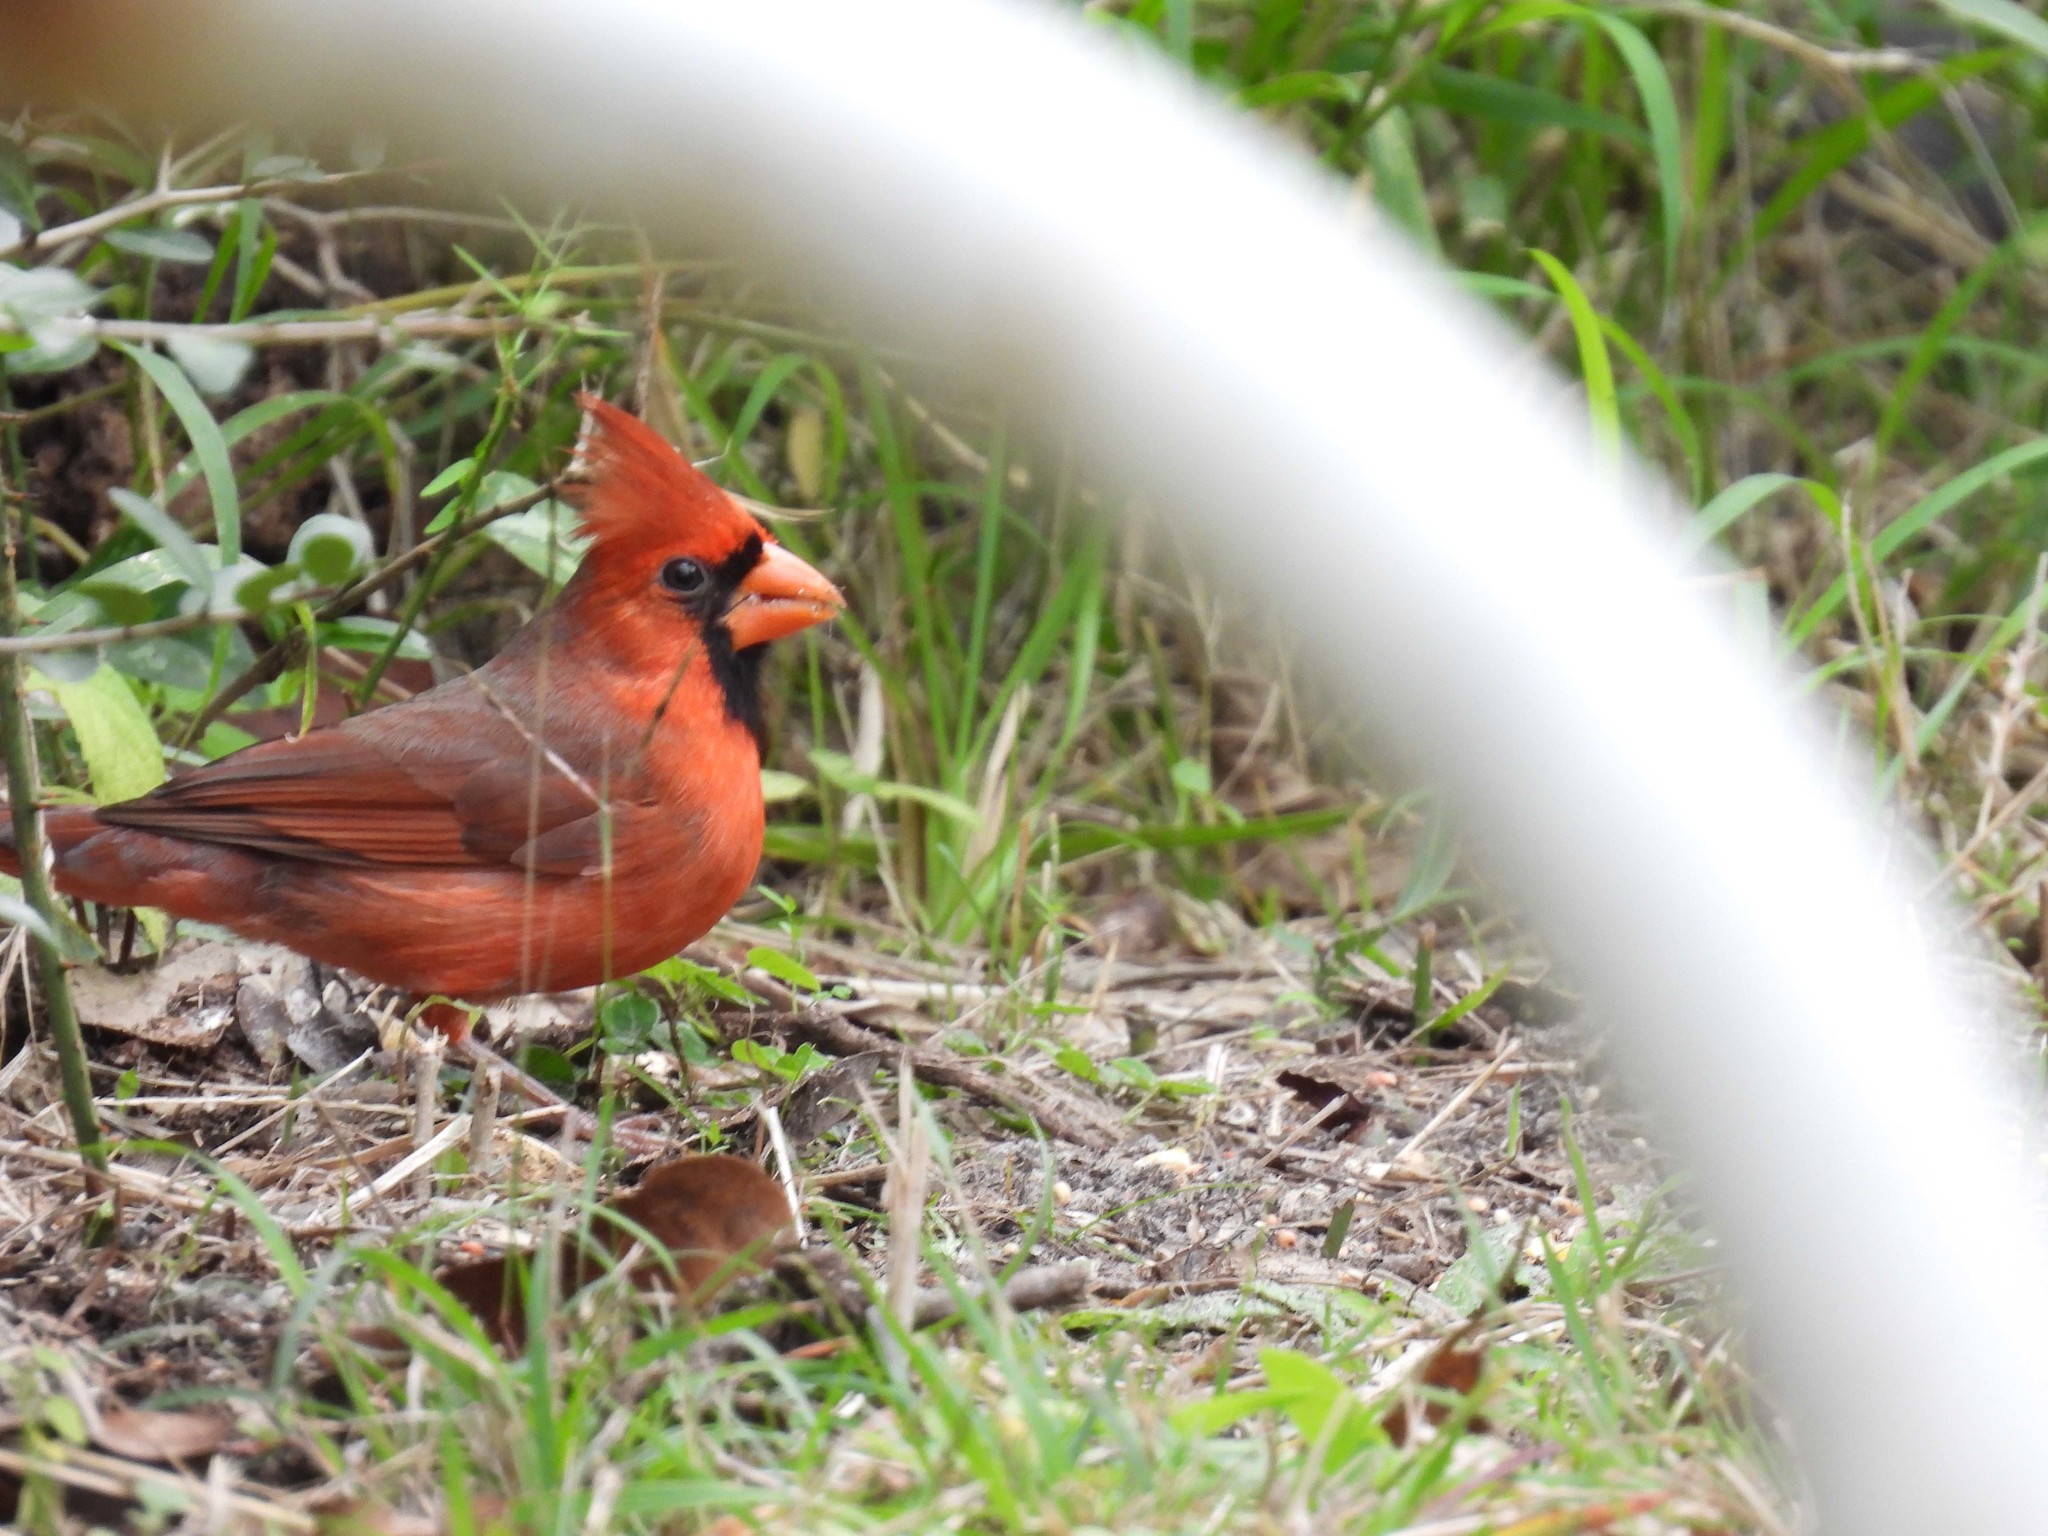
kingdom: Animalia
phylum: Chordata
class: Aves
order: Passeriformes
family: Cardinalidae
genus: Cardinalis
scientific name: Cardinalis cardinalis
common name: Northern cardinal
